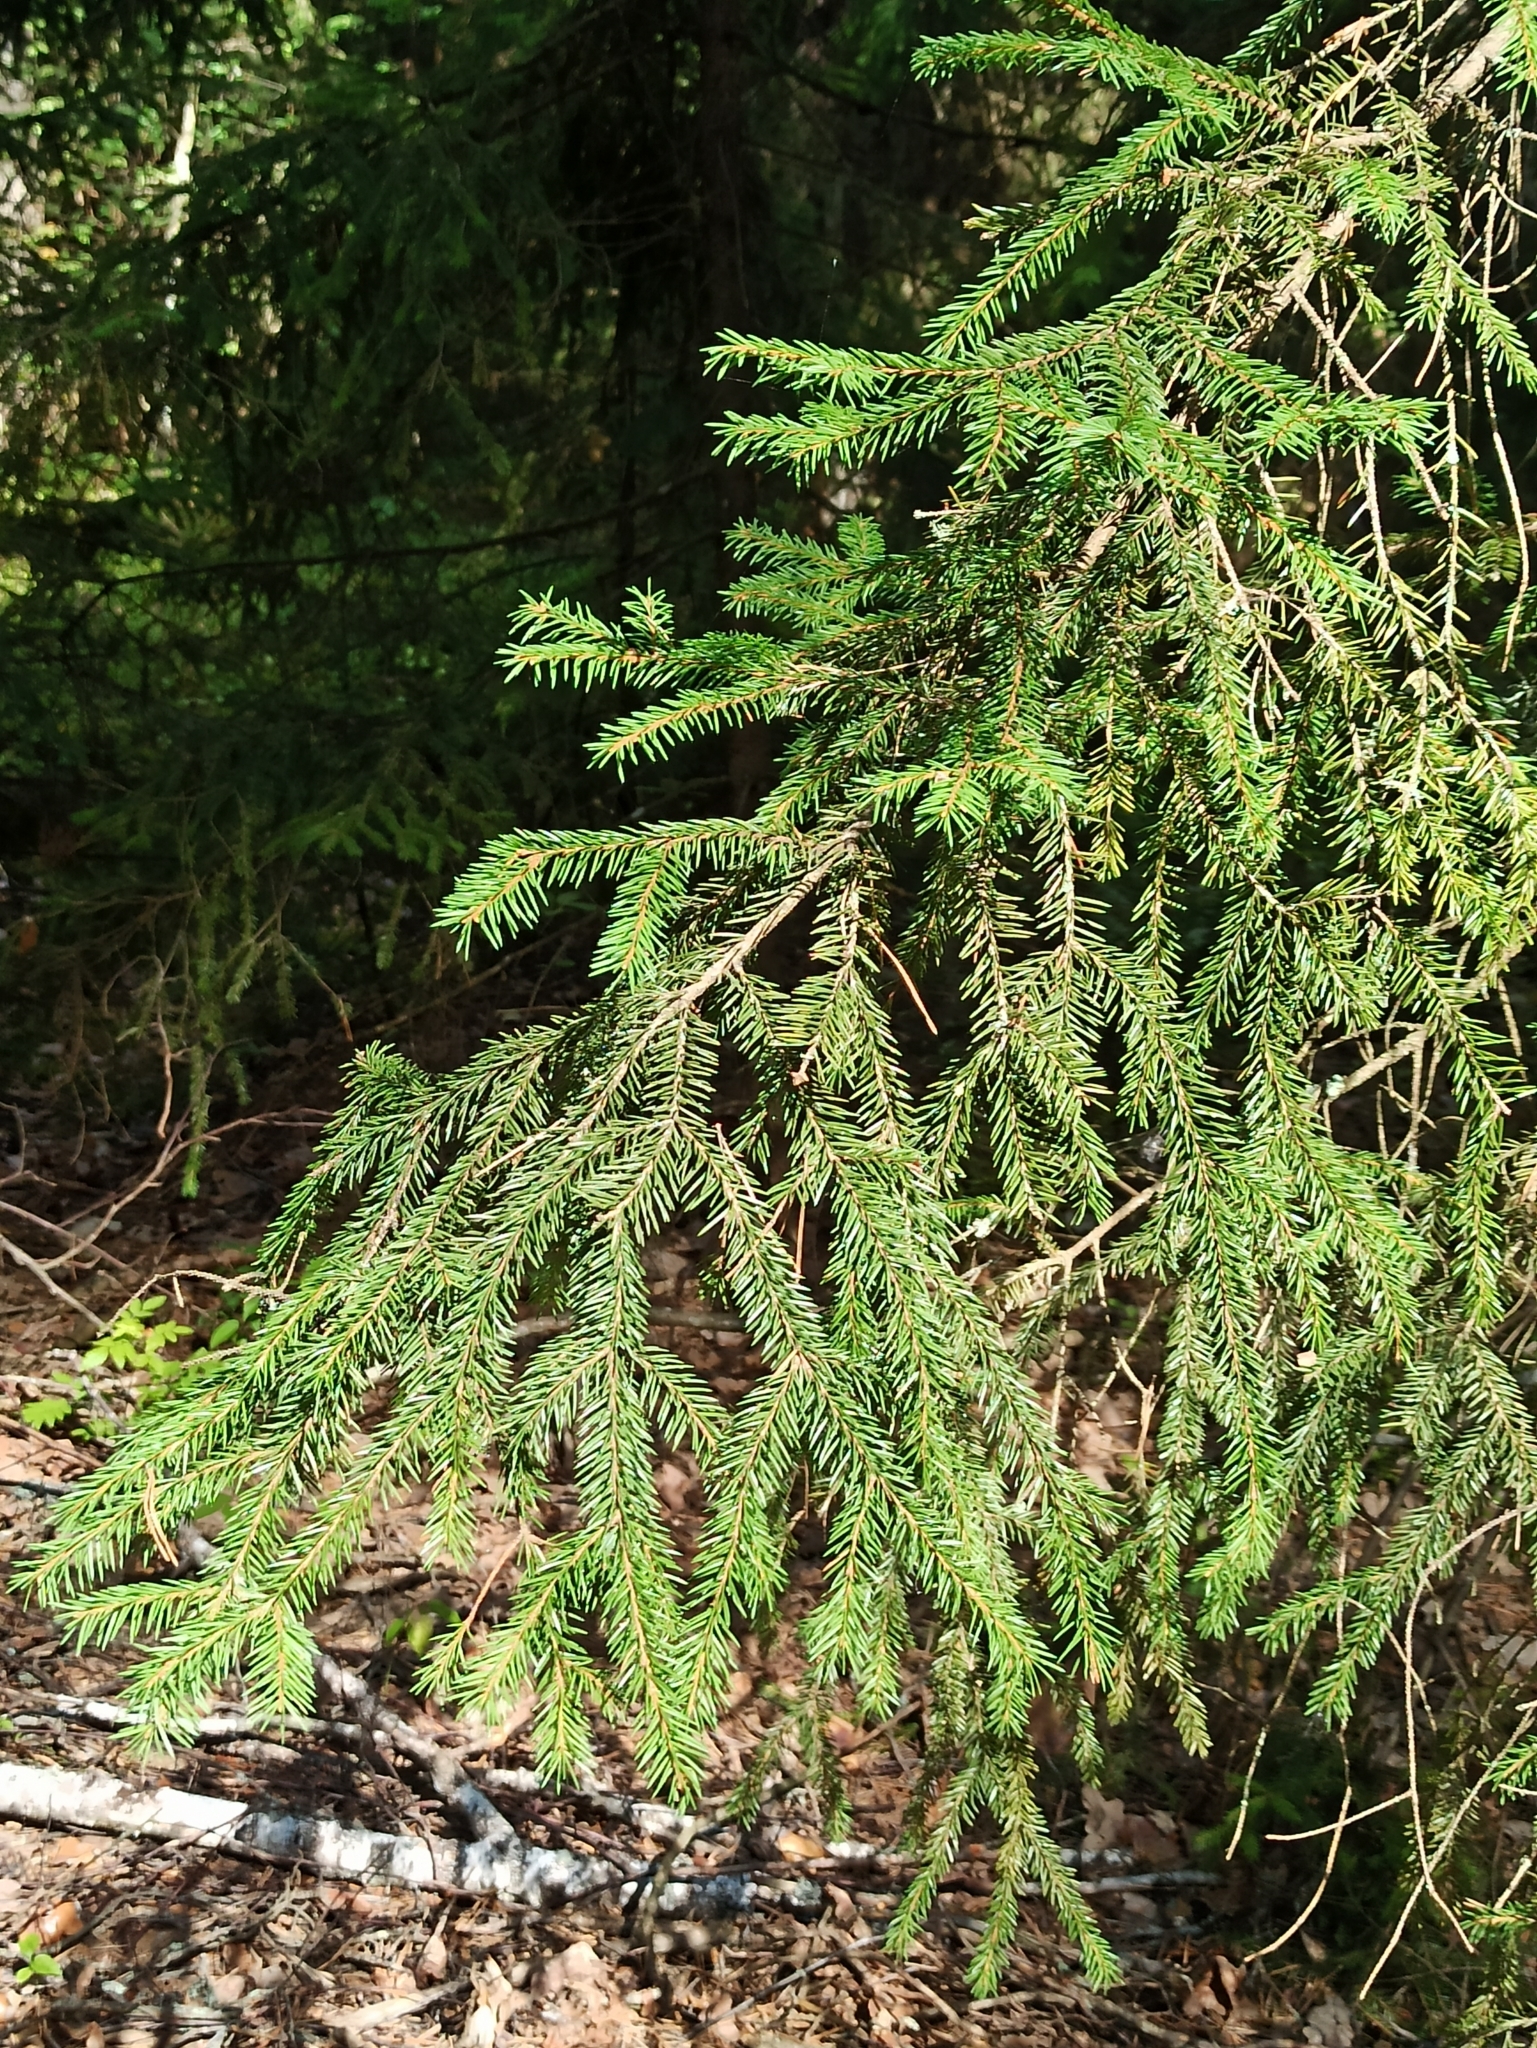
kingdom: Plantae
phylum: Tracheophyta
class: Pinopsida
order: Pinales
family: Pinaceae
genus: Picea
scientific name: Picea abies
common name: Norway spruce
